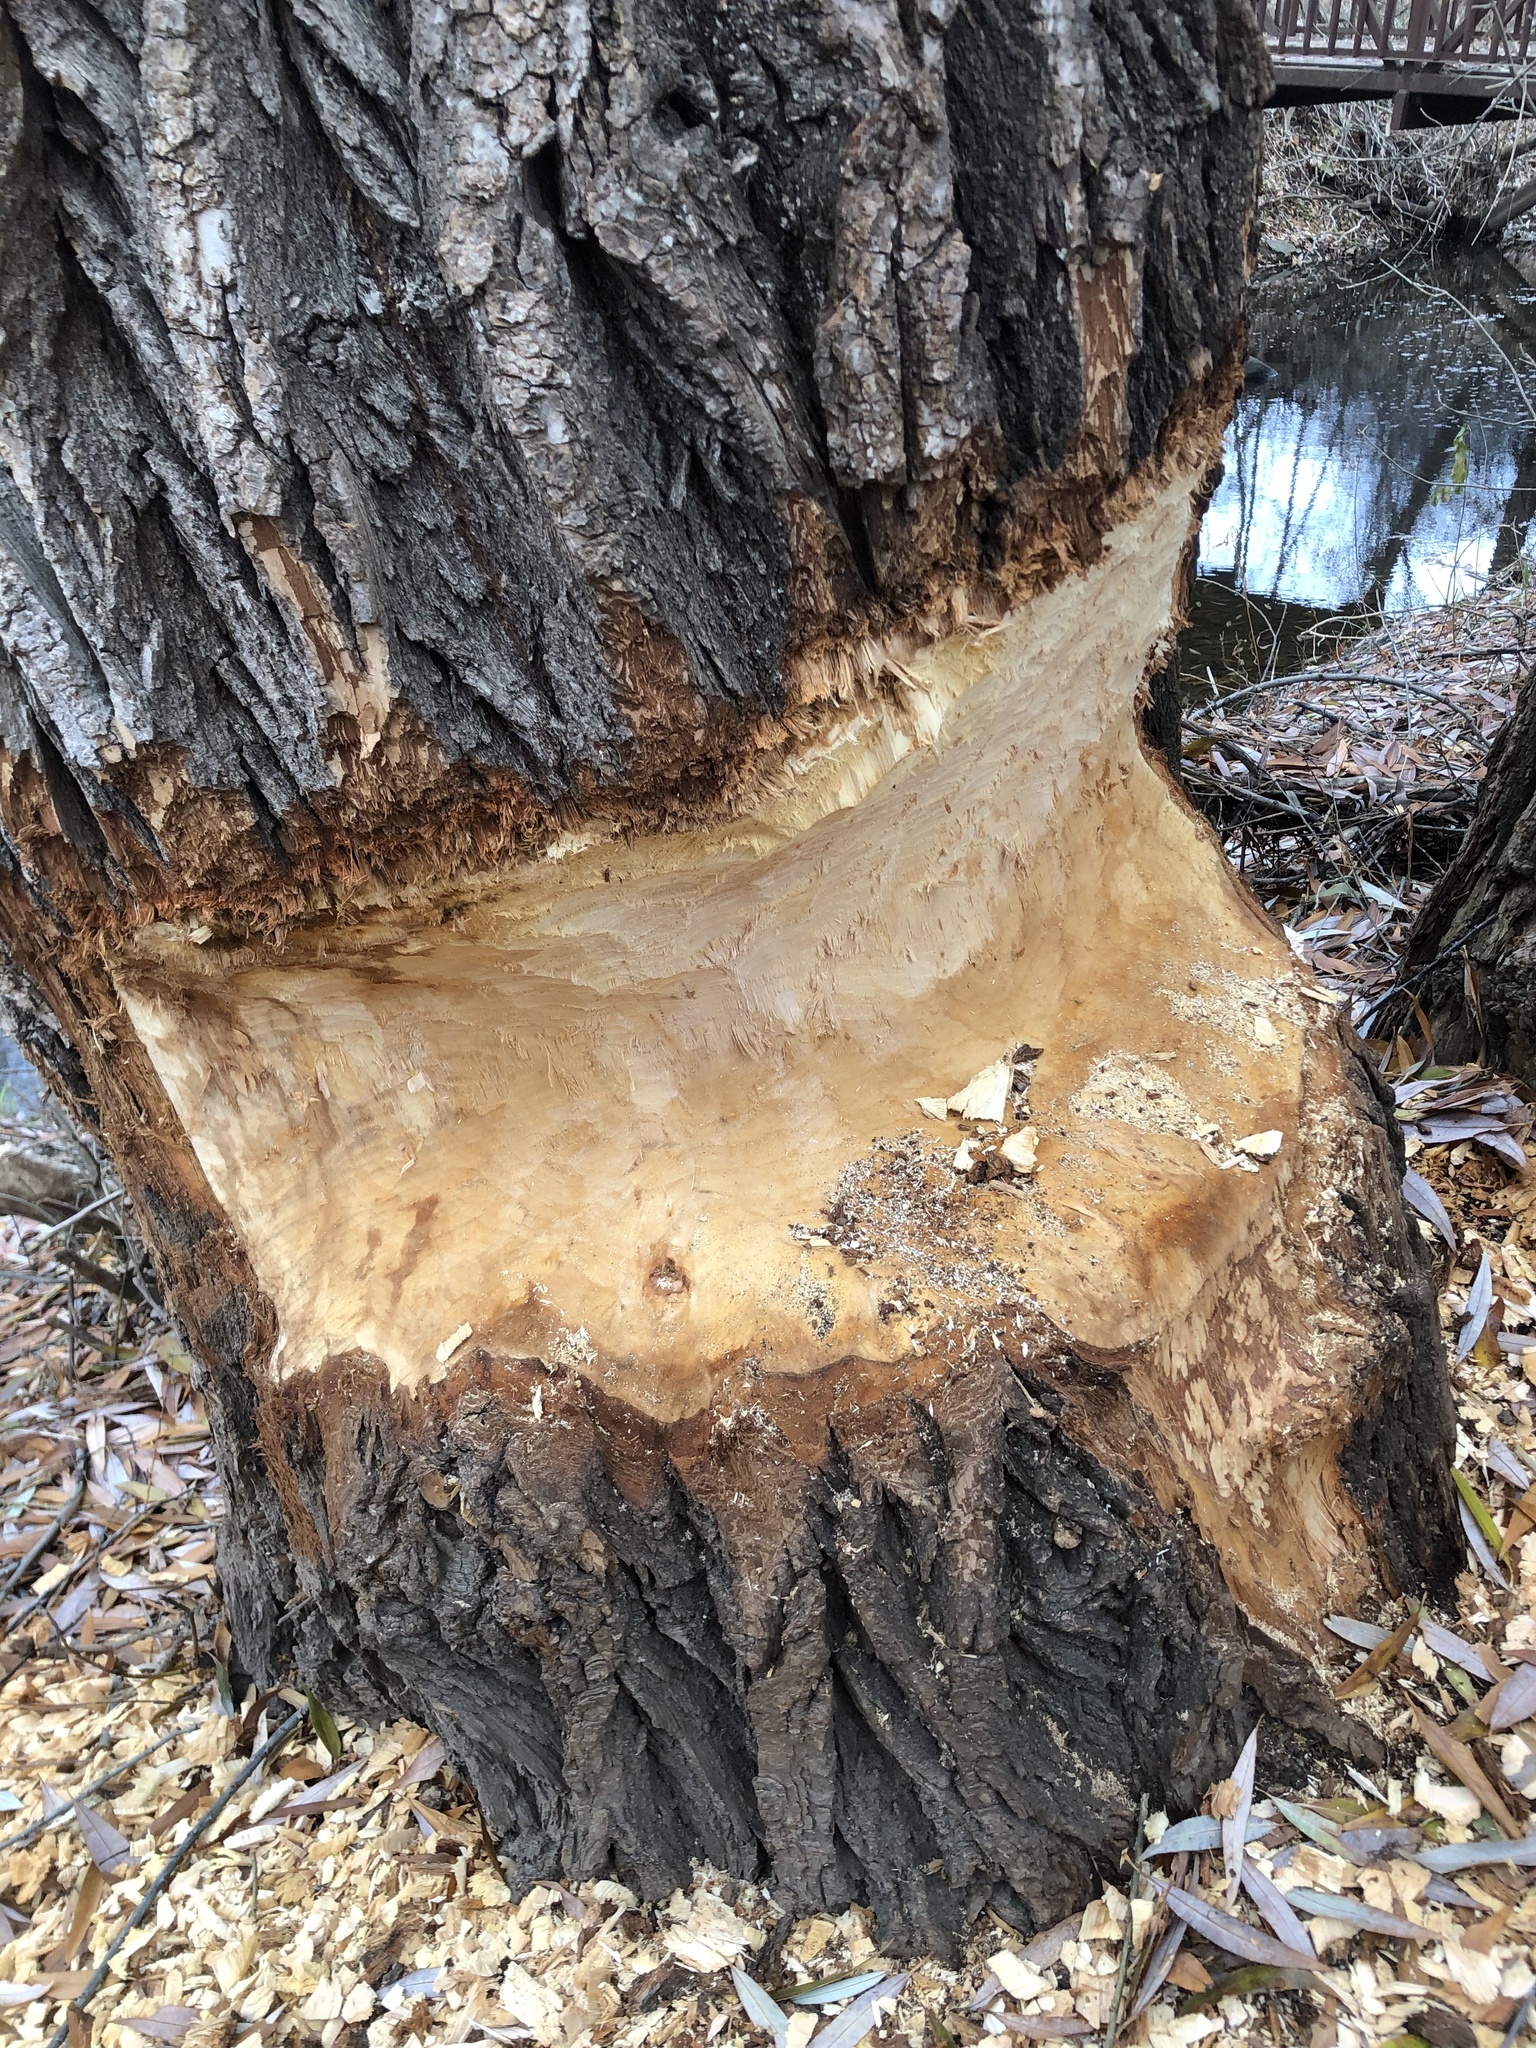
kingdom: Animalia
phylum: Chordata
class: Mammalia
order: Rodentia
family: Castoridae
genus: Castor
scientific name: Castor canadensis
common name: American beaver
